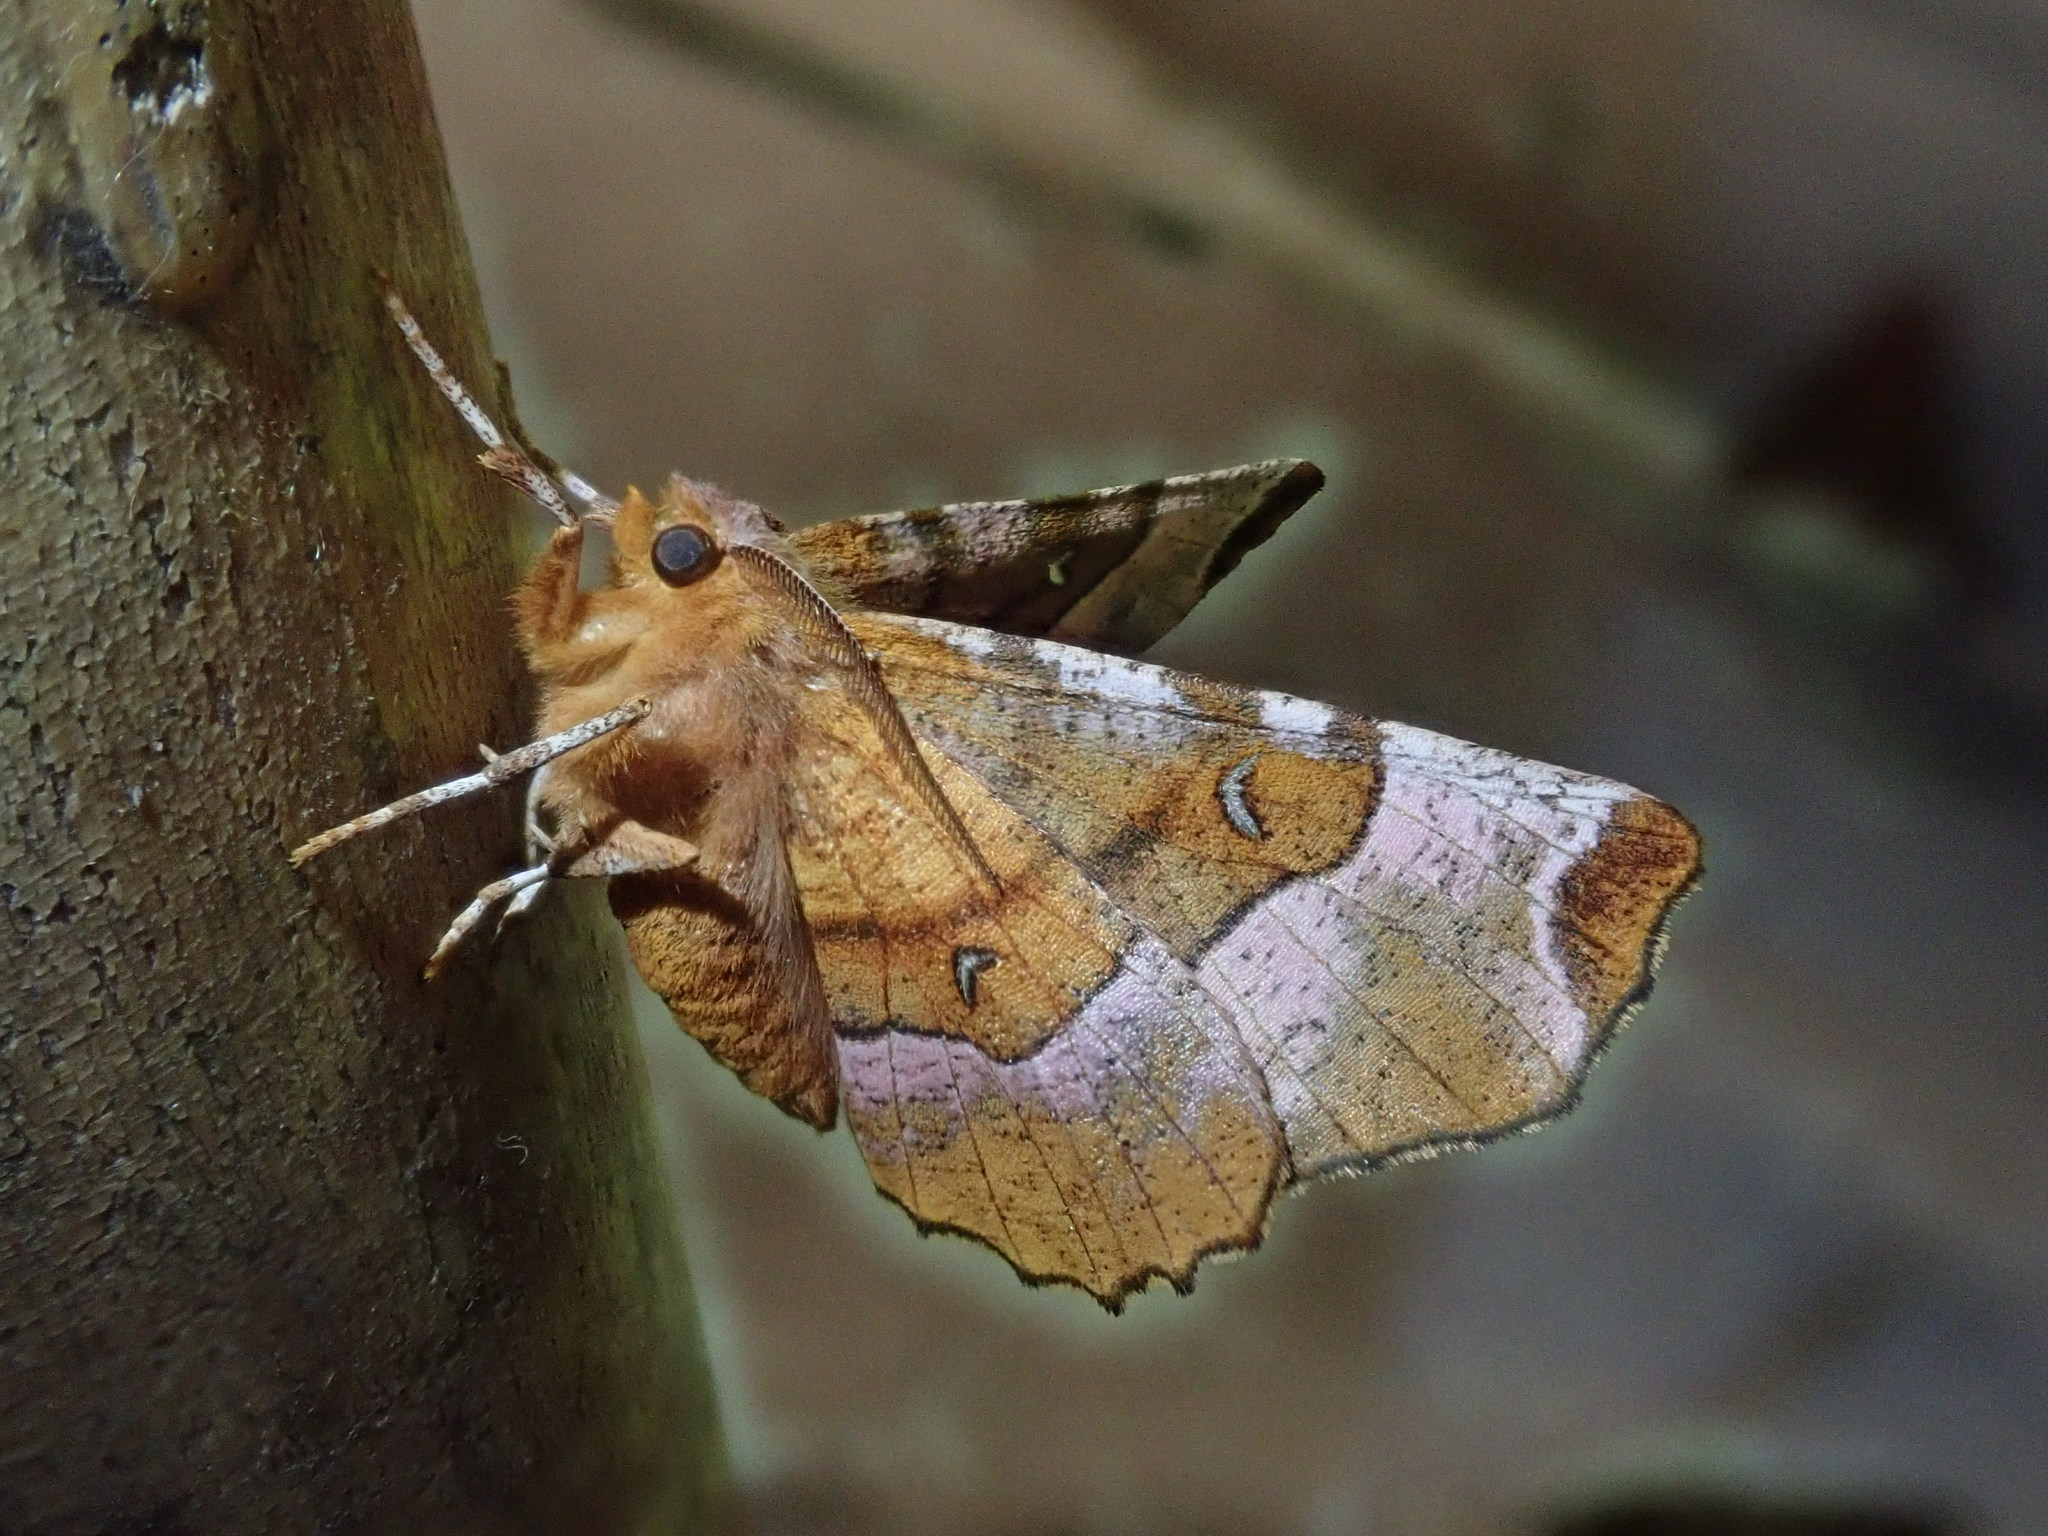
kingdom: Animalia
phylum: Arthropoda
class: Insecta
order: Lepidoptera
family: Geometridae
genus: Selenia
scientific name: Selenia tetralunaria
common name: Purple thorn
